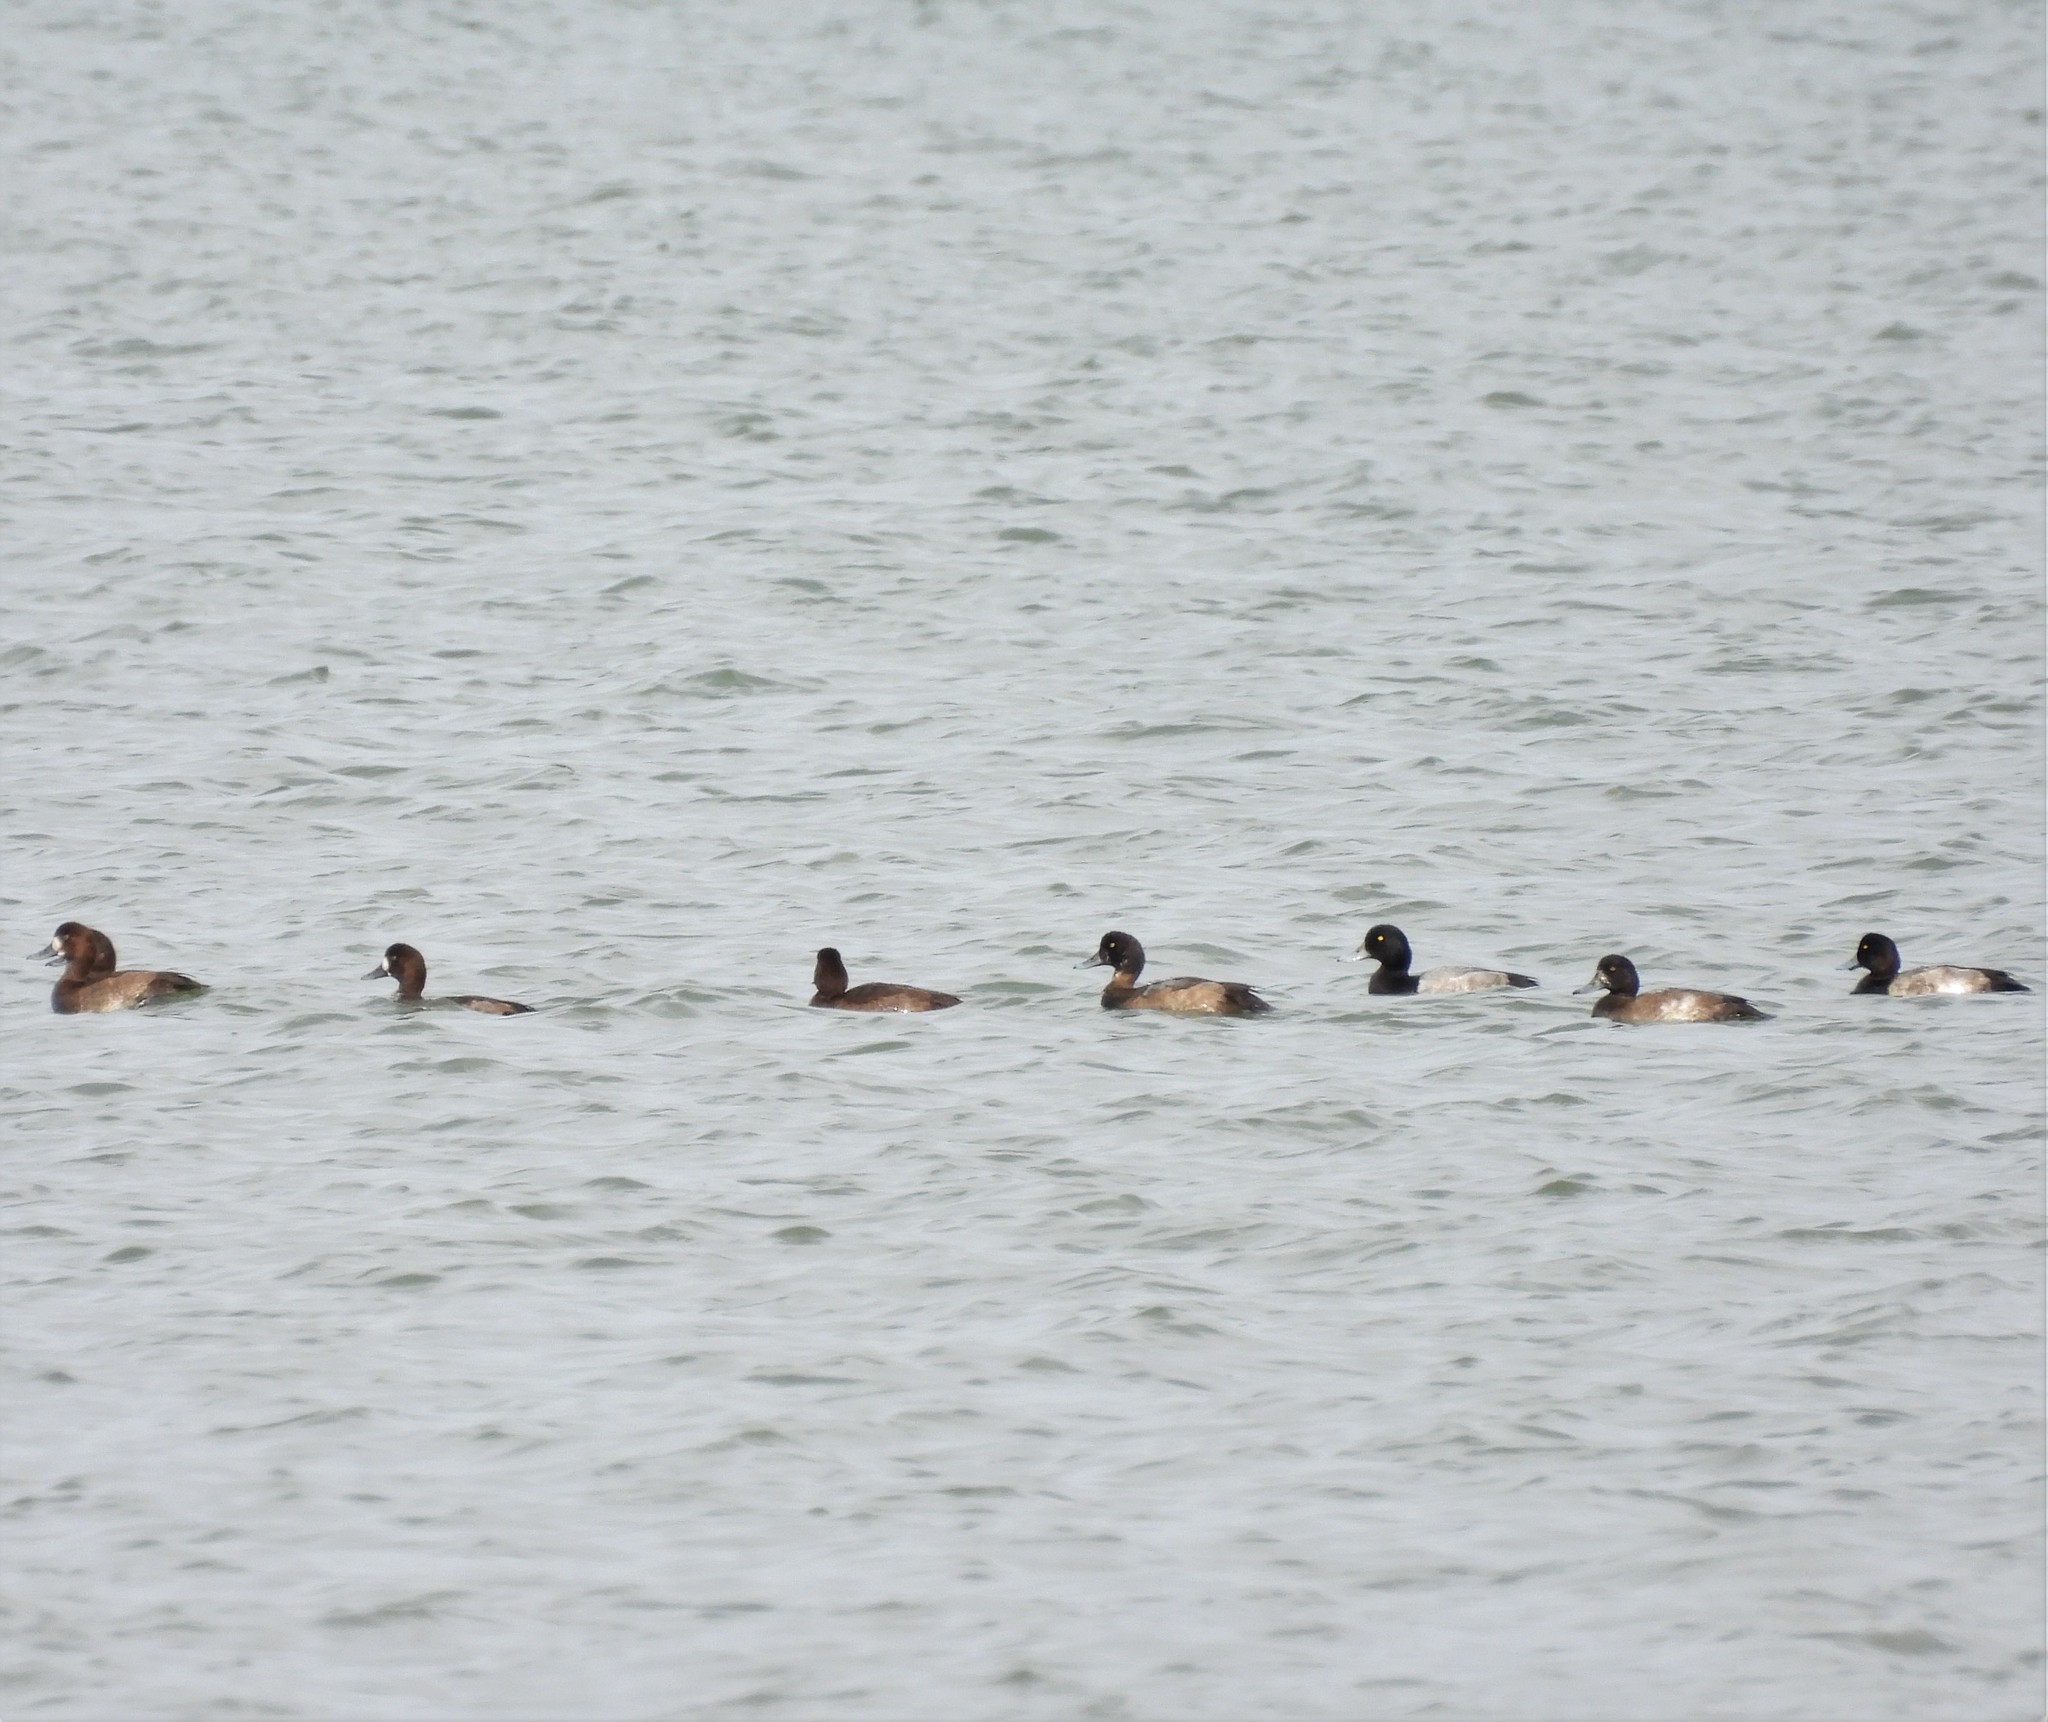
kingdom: Animalia
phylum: Chordata
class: Aves
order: Anseriformes
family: Anatidae
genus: Aythya
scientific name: Aythya marila
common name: Greater scaup
